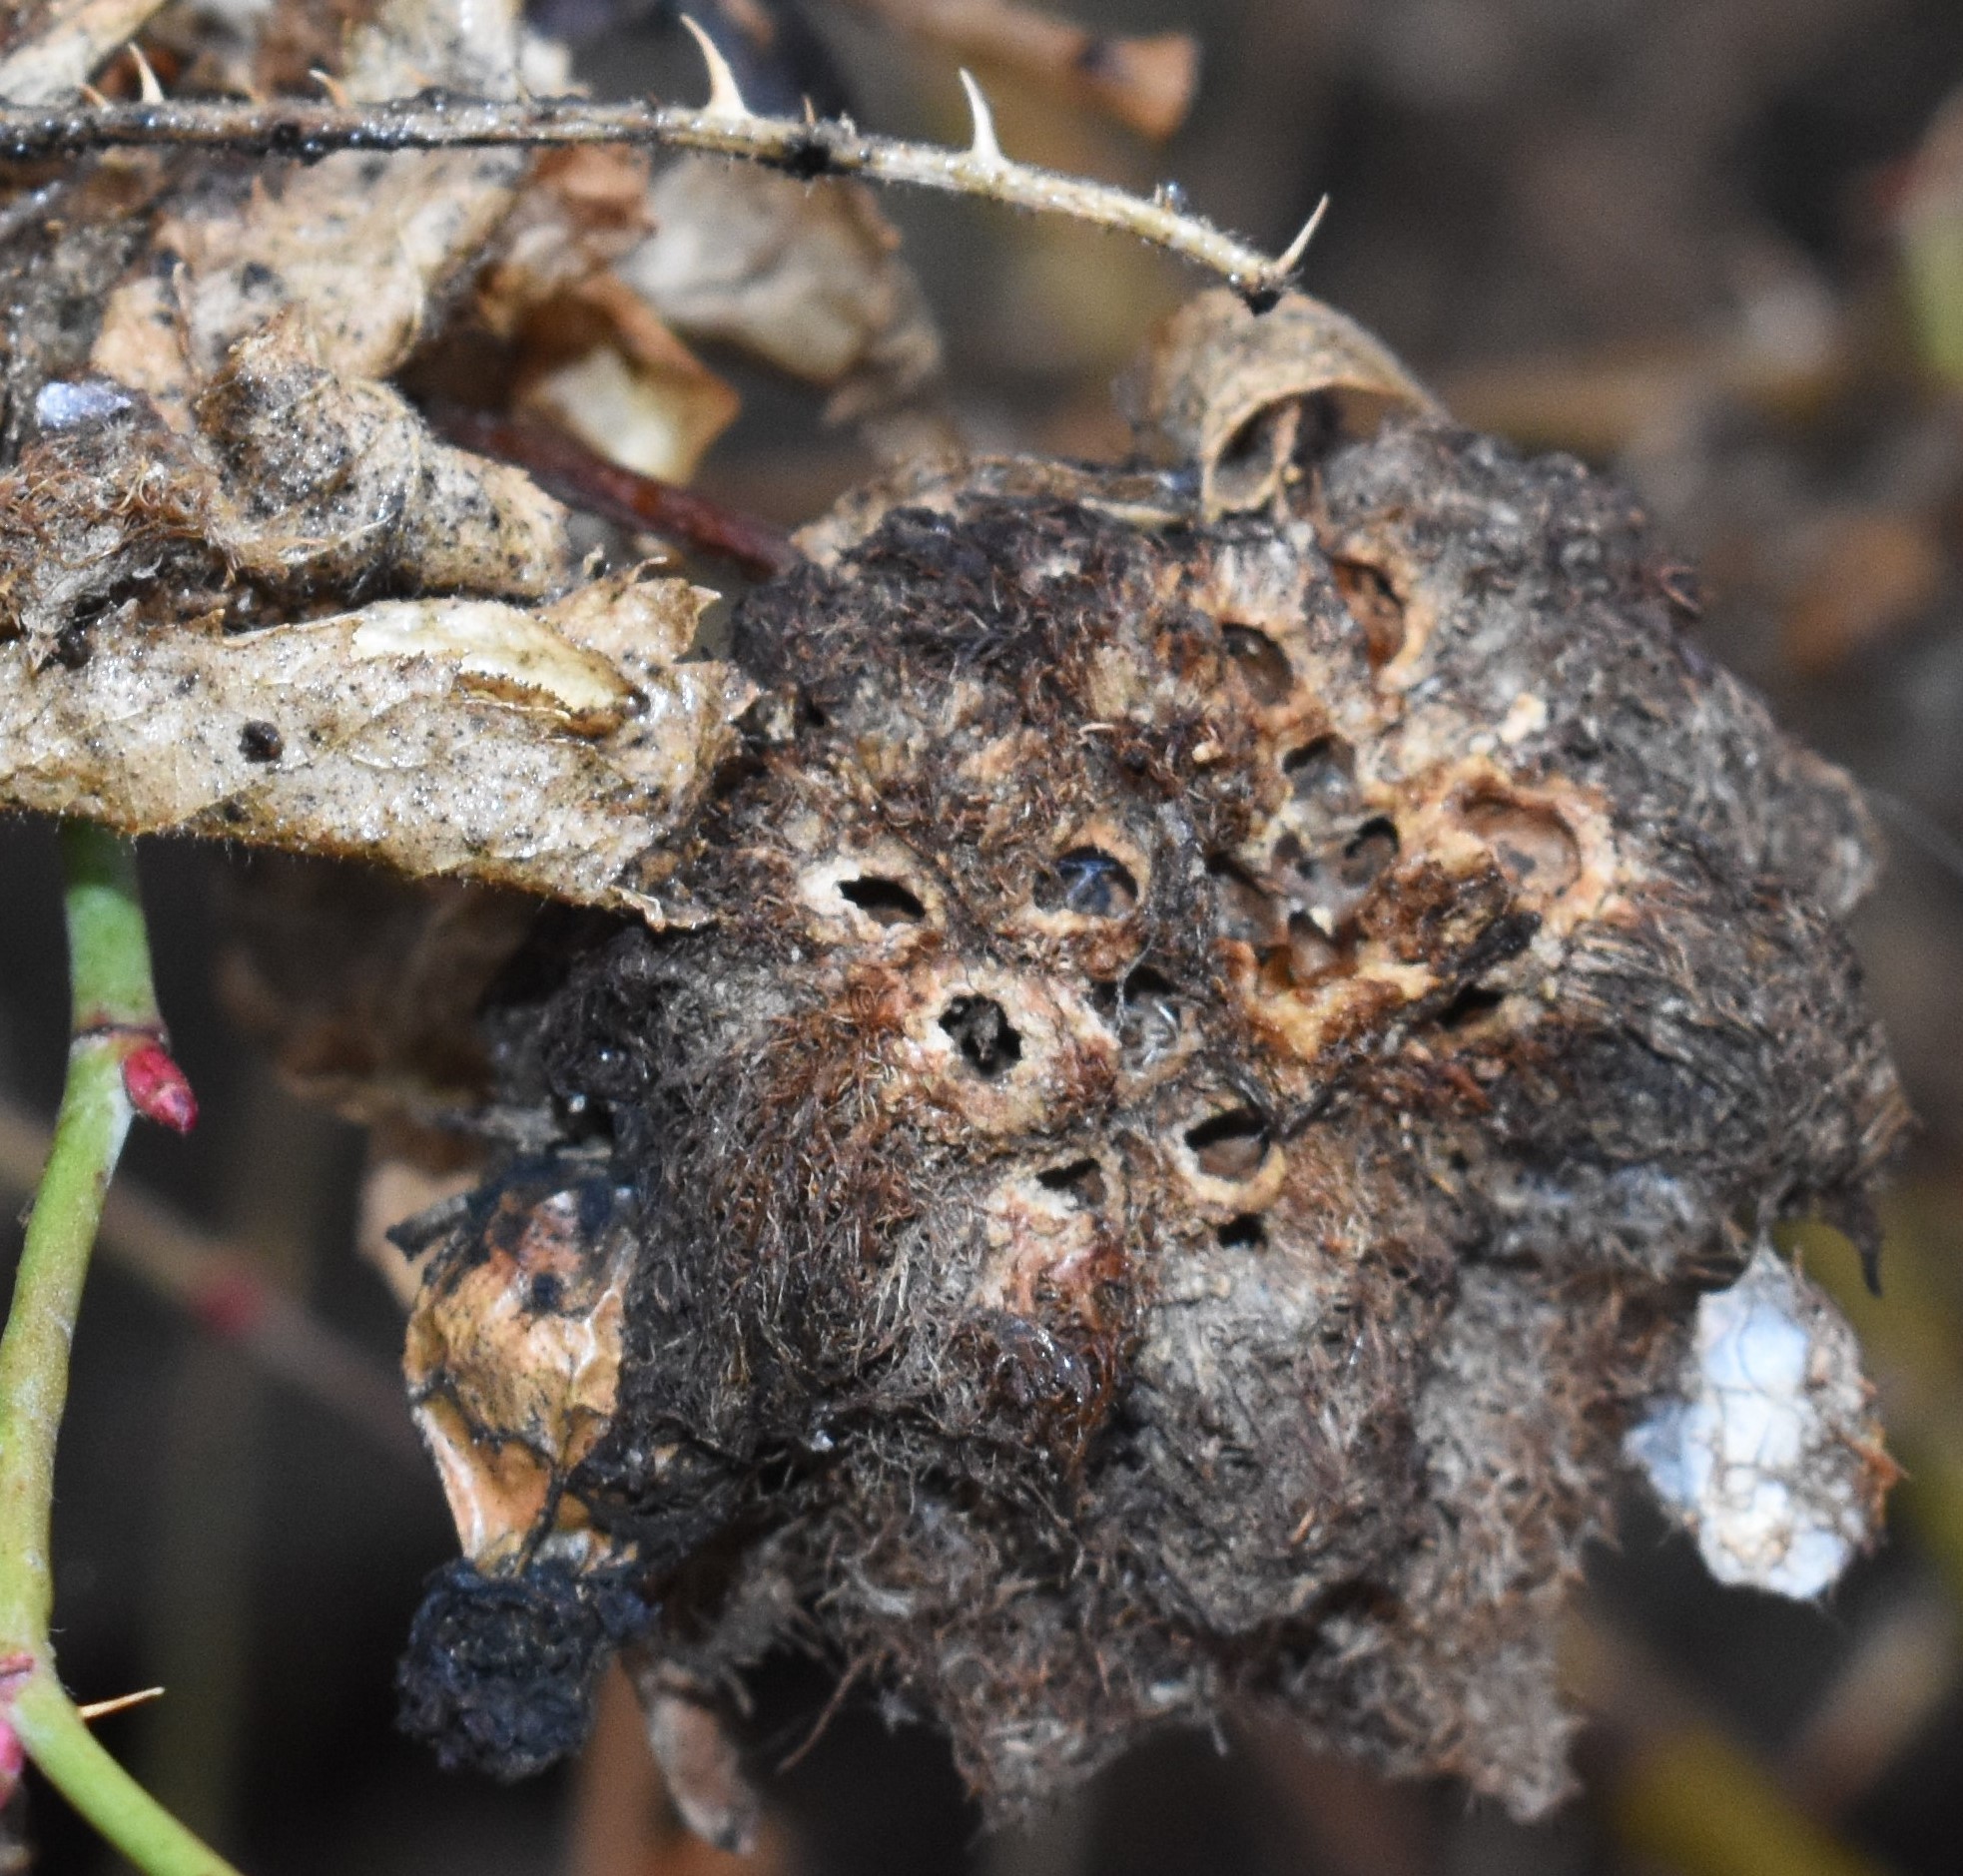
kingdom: Animalia
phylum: Arthropoda
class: Insecta
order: Hymenoptera
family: Cynipidae
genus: Diplolepis
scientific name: Diplolepis rosae
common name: Bedeguar gall
